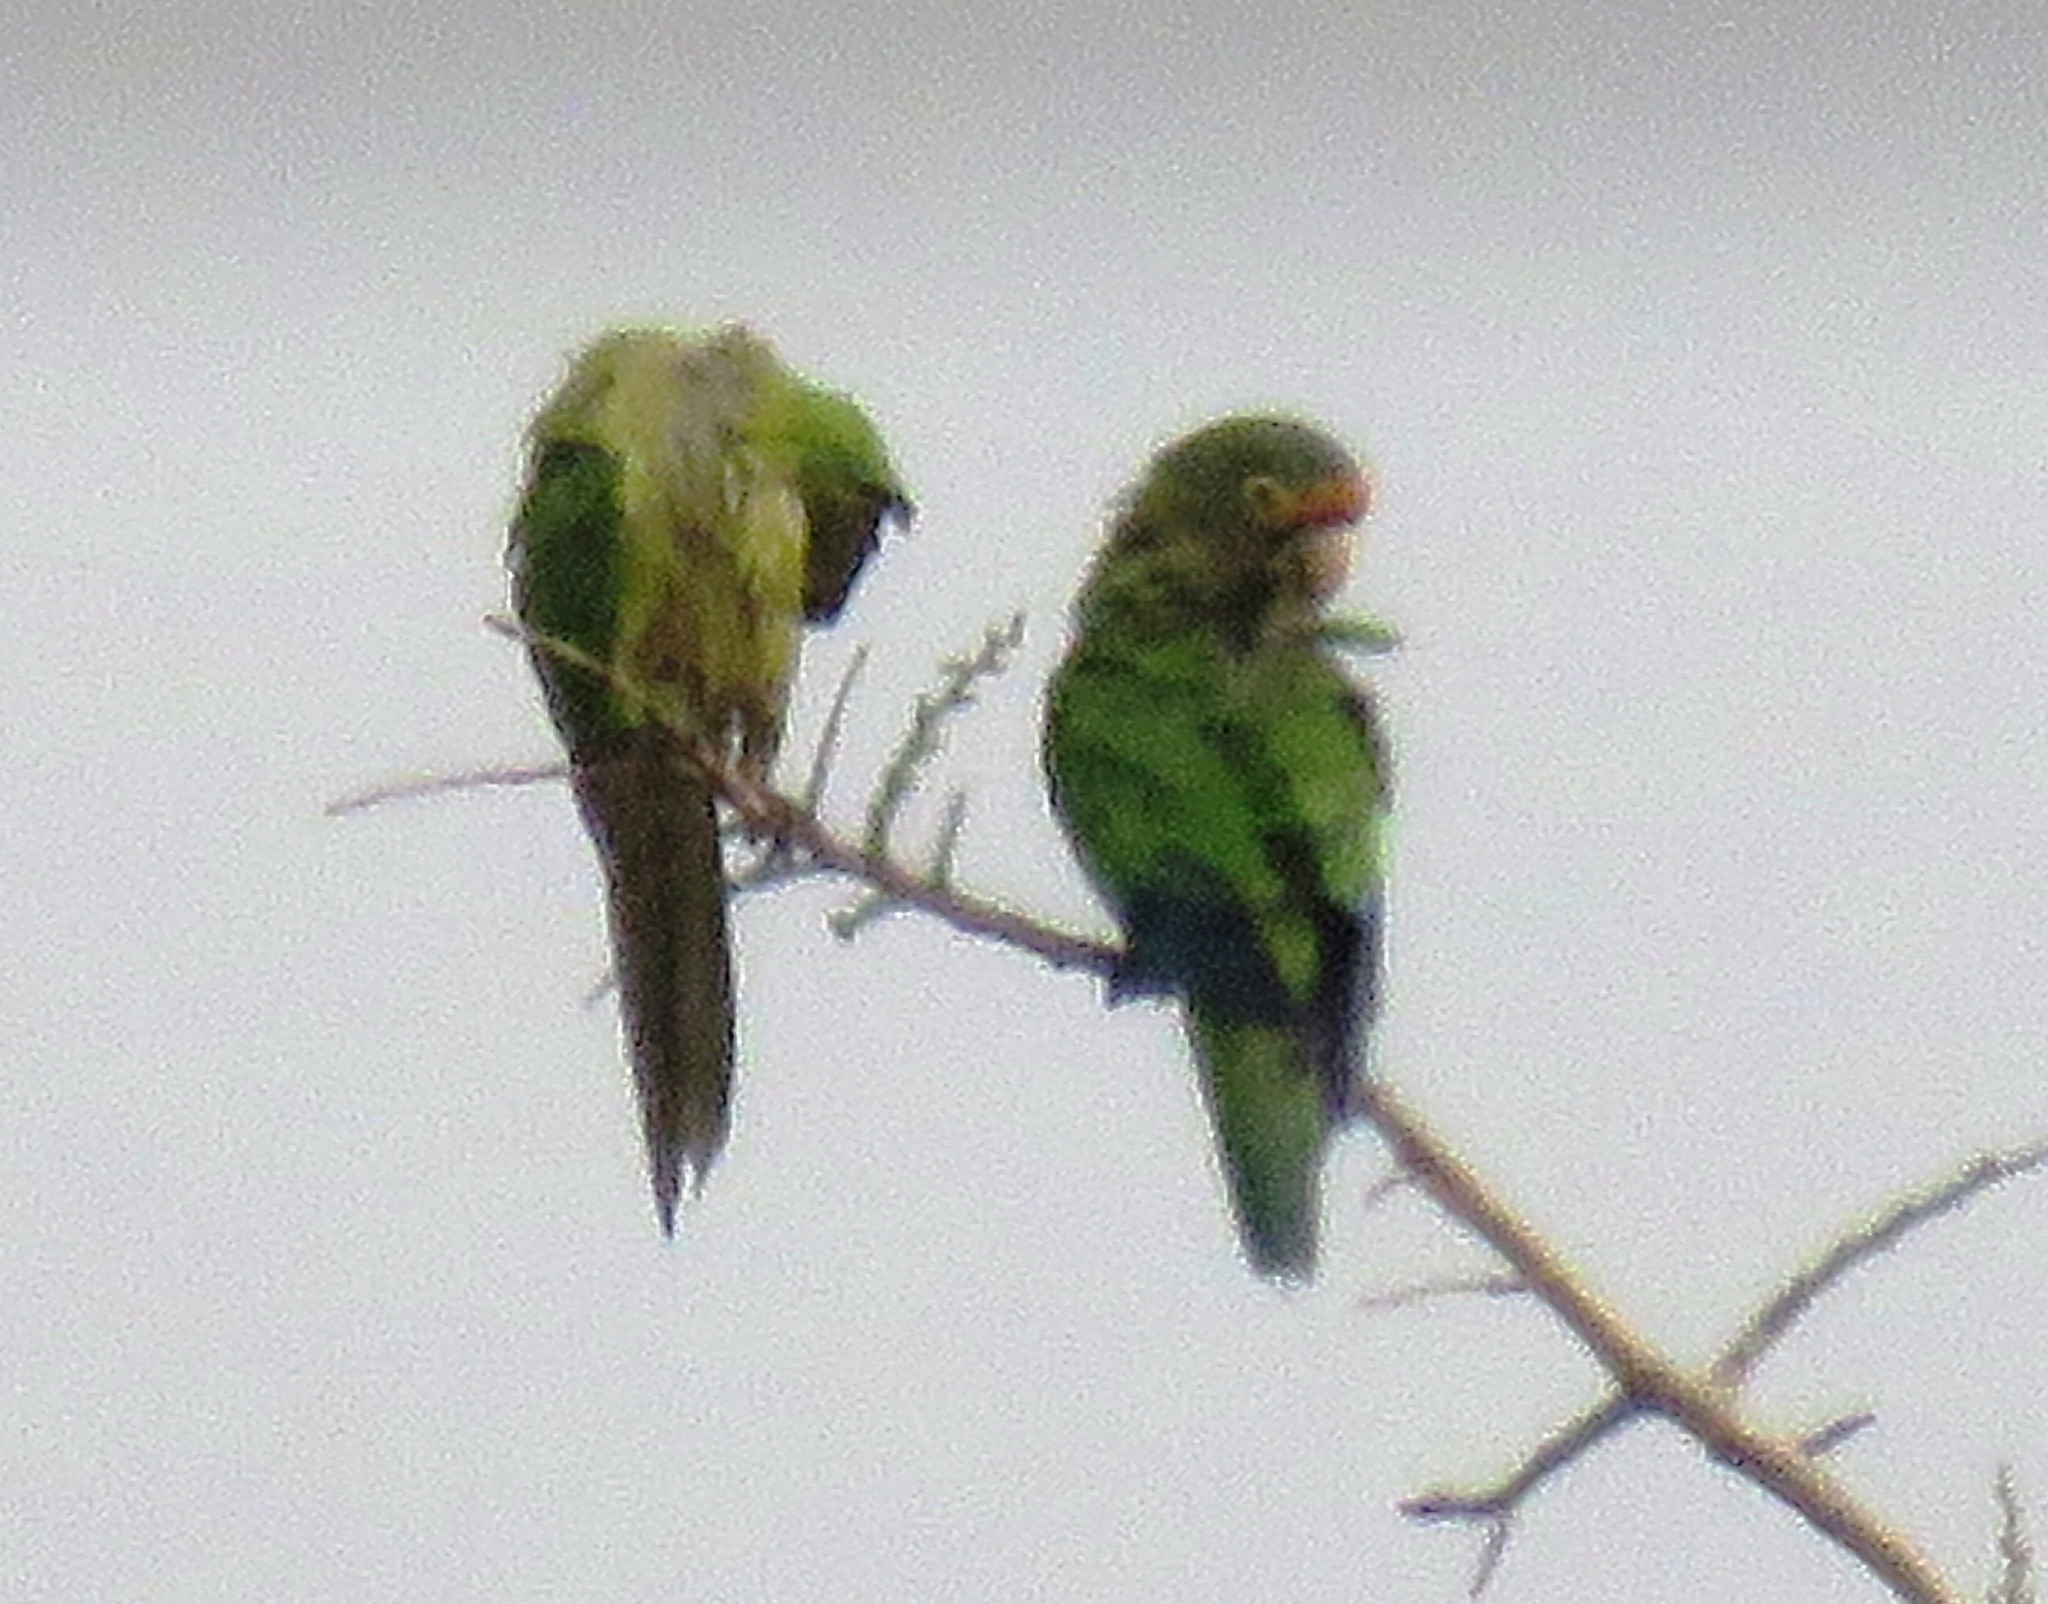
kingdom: Animalia
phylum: Chordata
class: Aves
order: Psittaciformes
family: Psittacidae
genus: Aratinga
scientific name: Aratinga canicularis
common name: Orange-fronted parakeet
